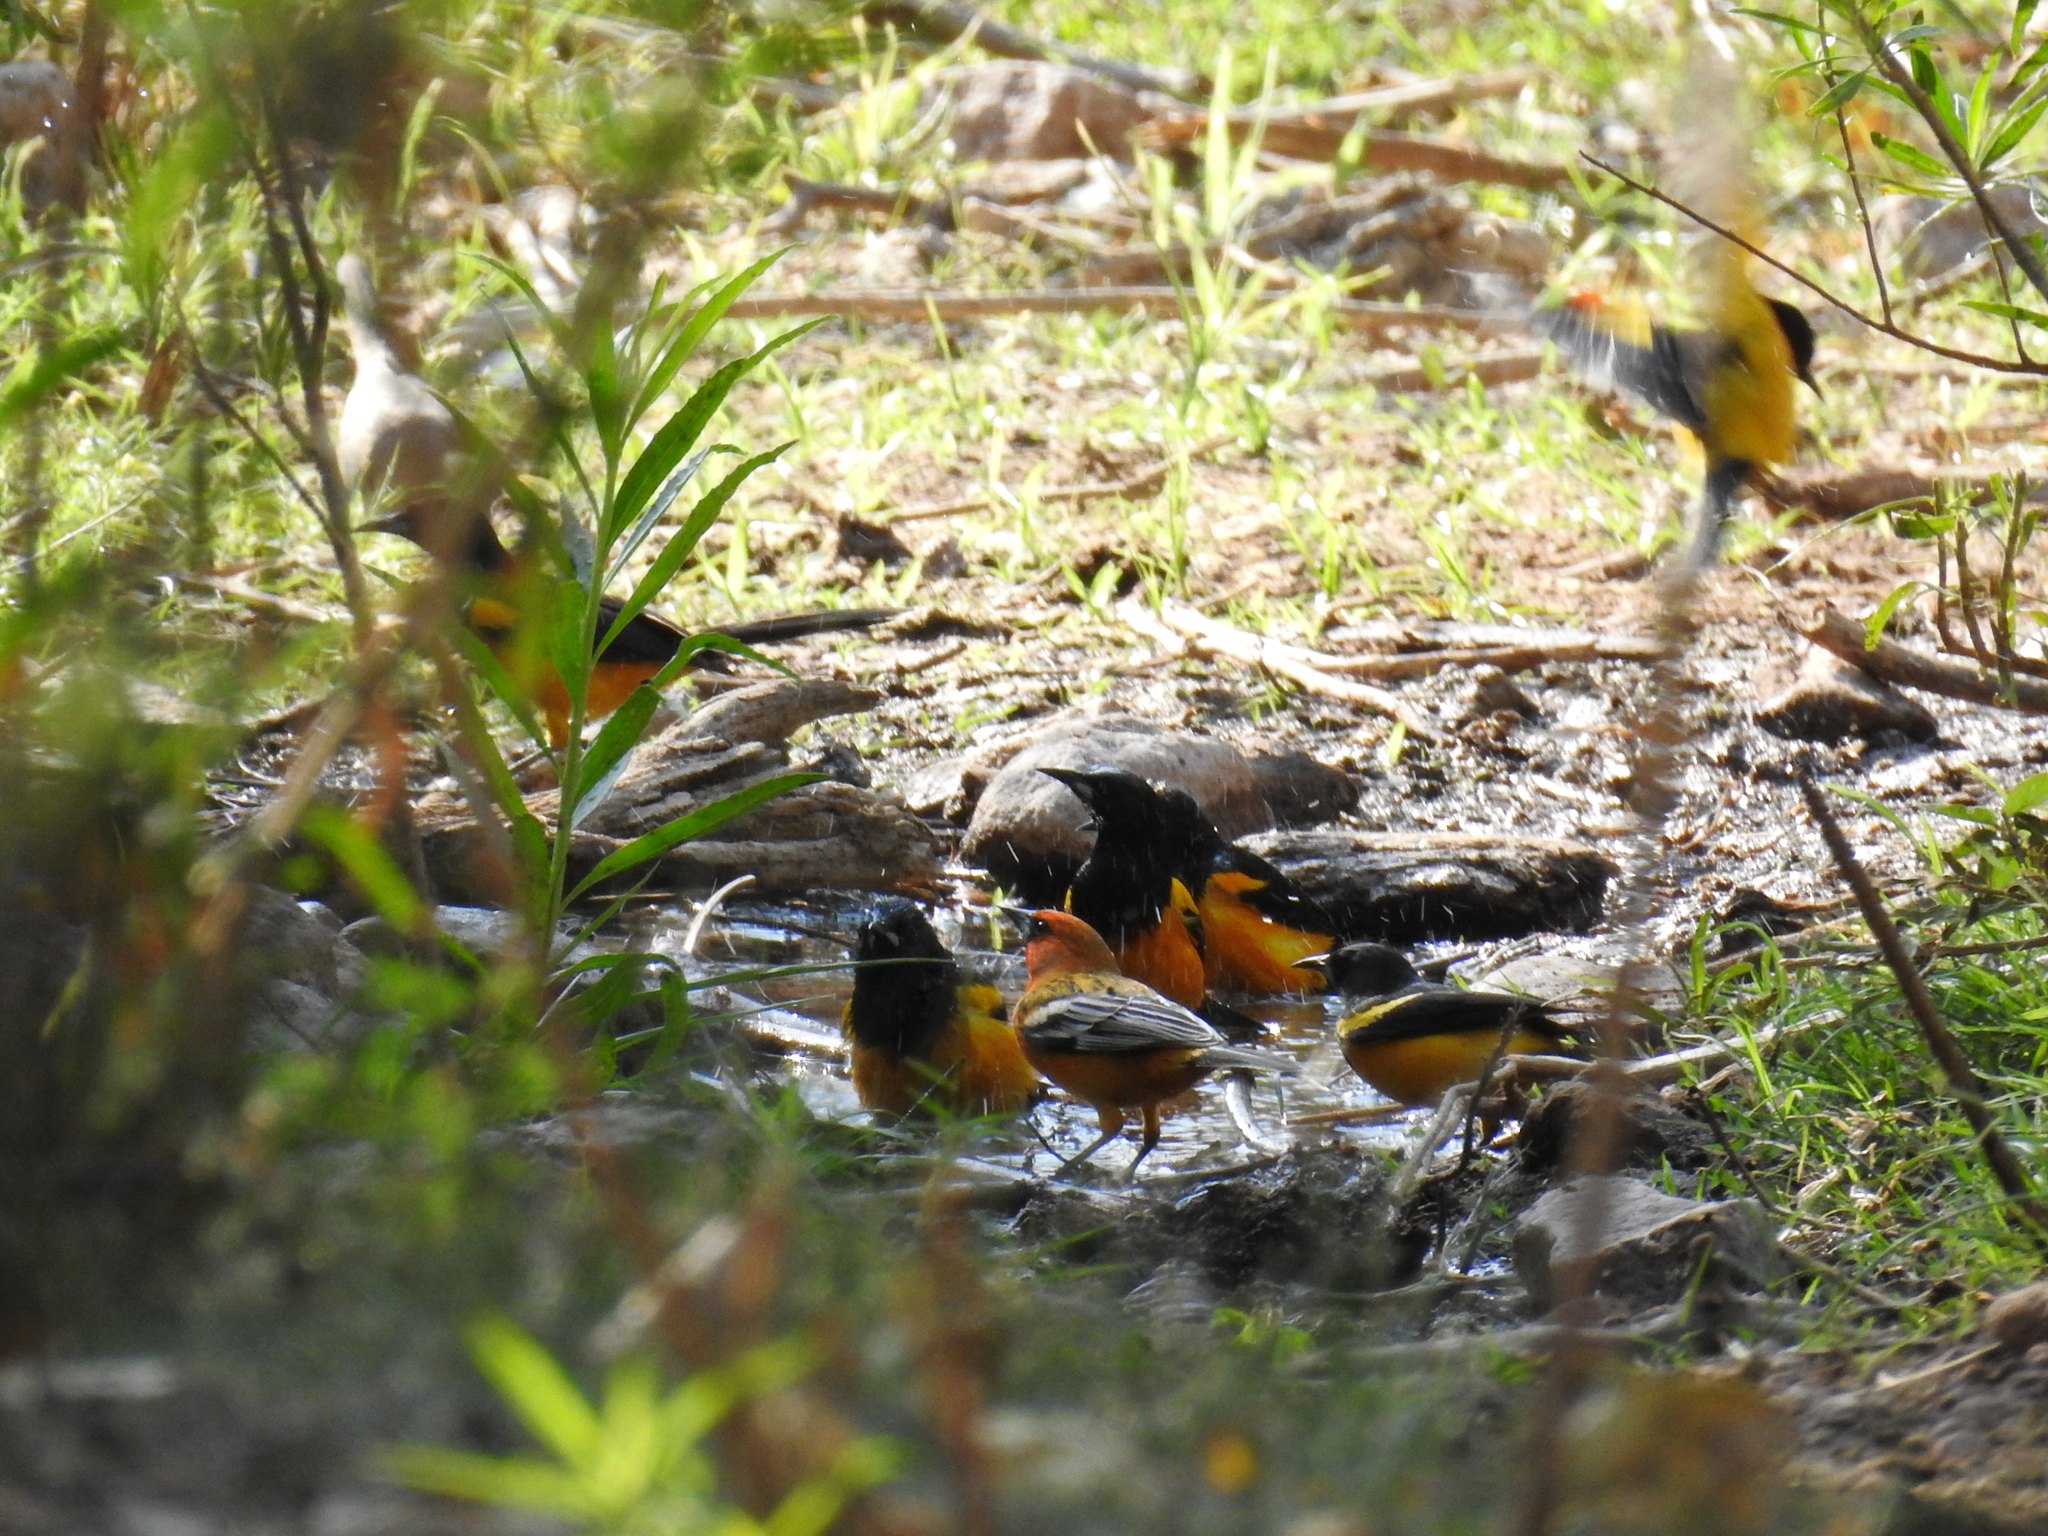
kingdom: Animalia
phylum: Chordata
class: Aves
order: Passeriformes
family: Icteridae
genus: Icterus
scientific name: Icterus wagleri
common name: Black-vented oriole
